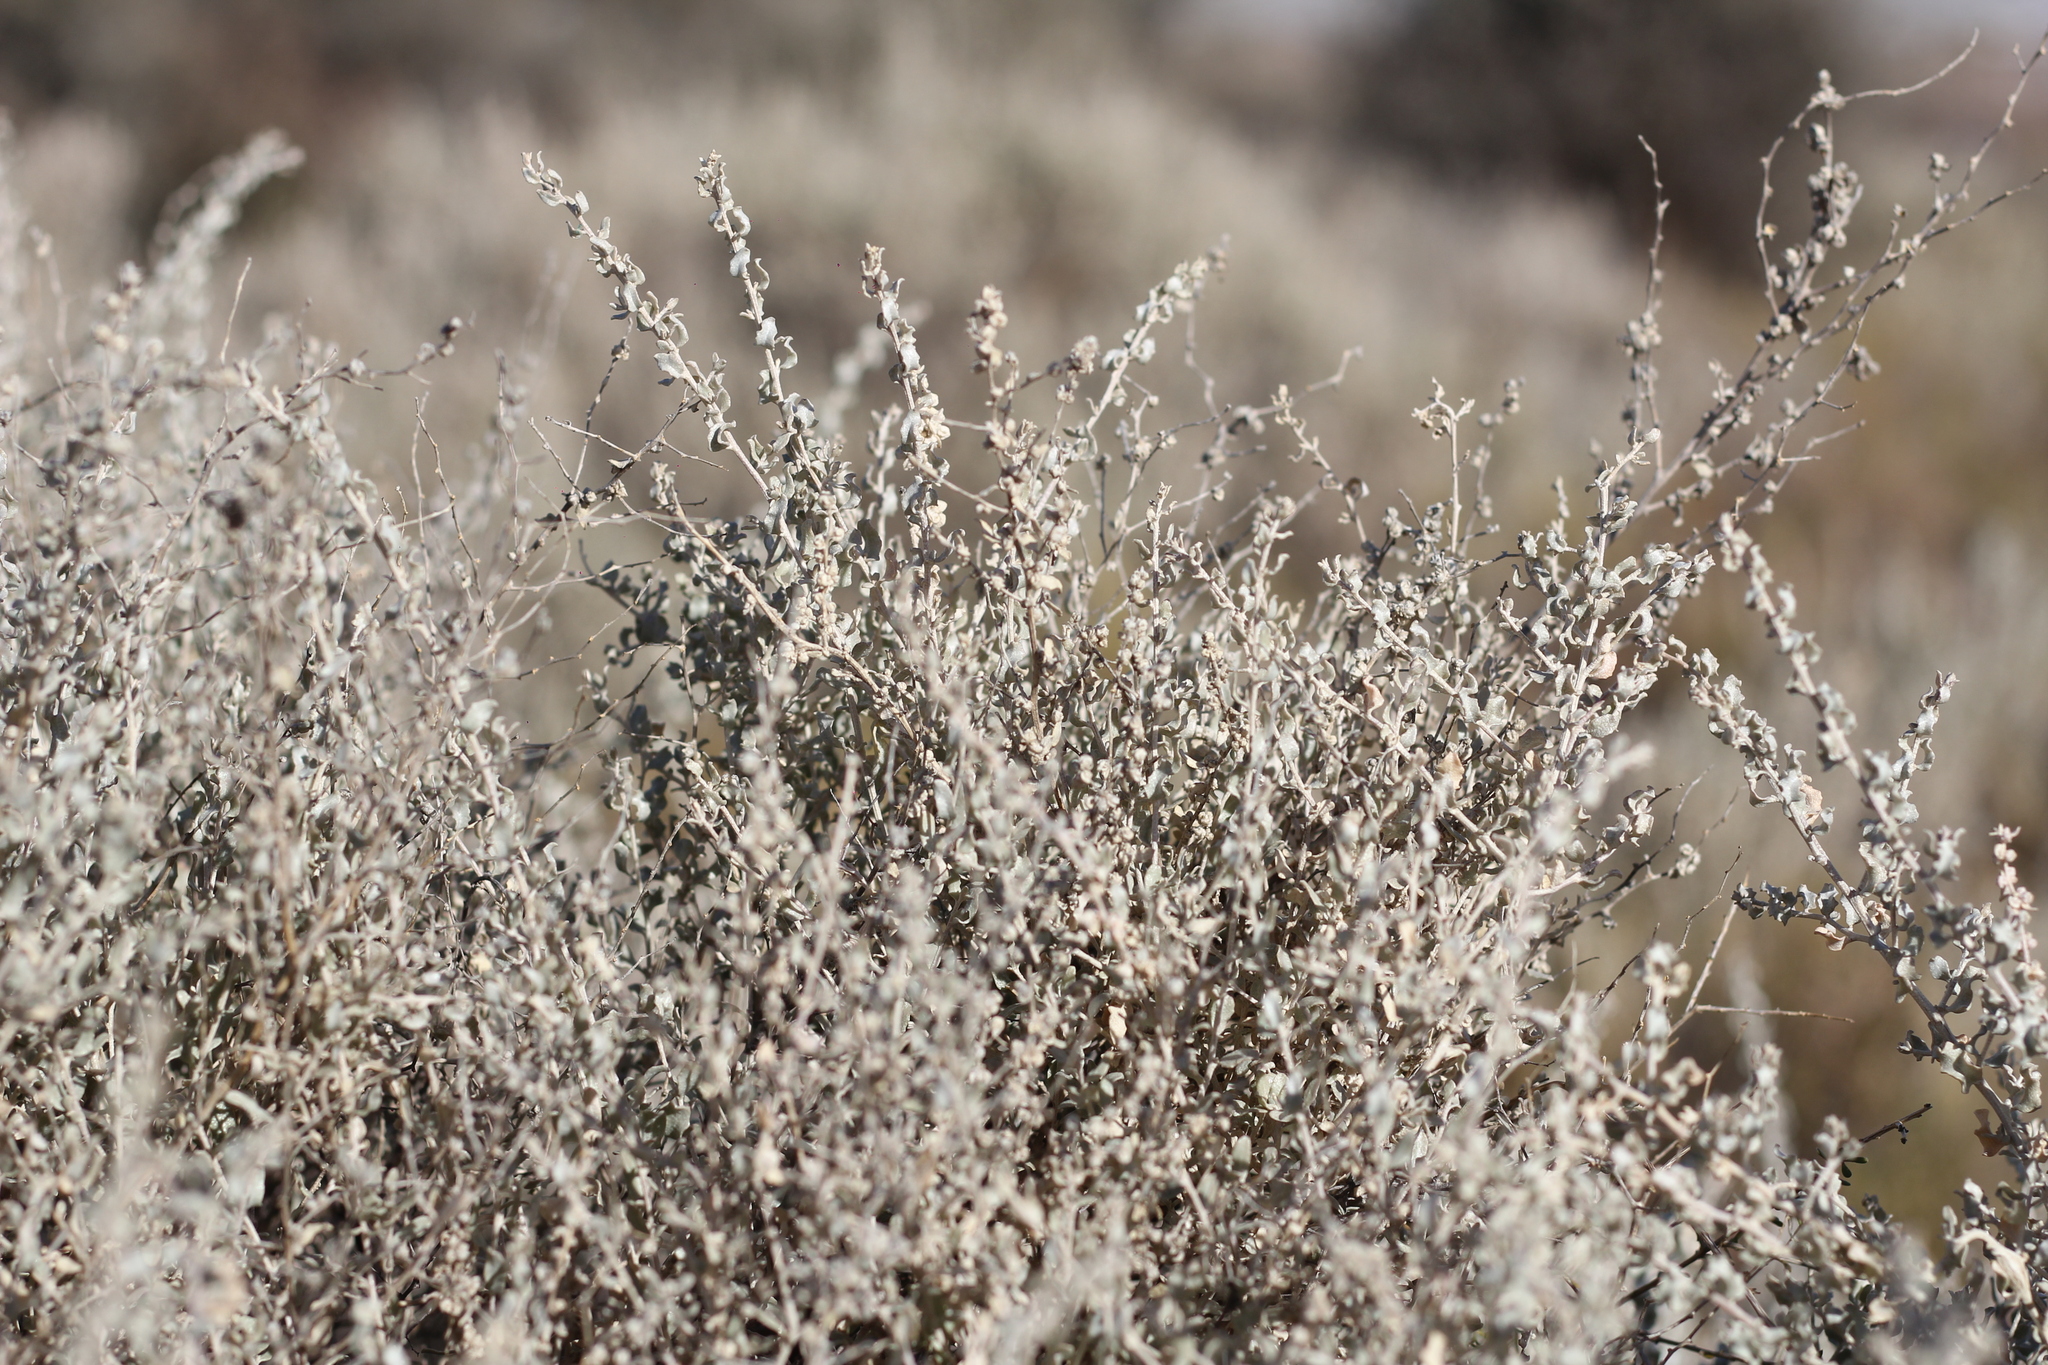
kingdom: Plantae
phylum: Tracheophyta
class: Magnoliopsida
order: Caryophyllales
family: Amaranthaceae
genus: Atriplex
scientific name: Atriplex undulata
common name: Wavy-leaved saltbush
